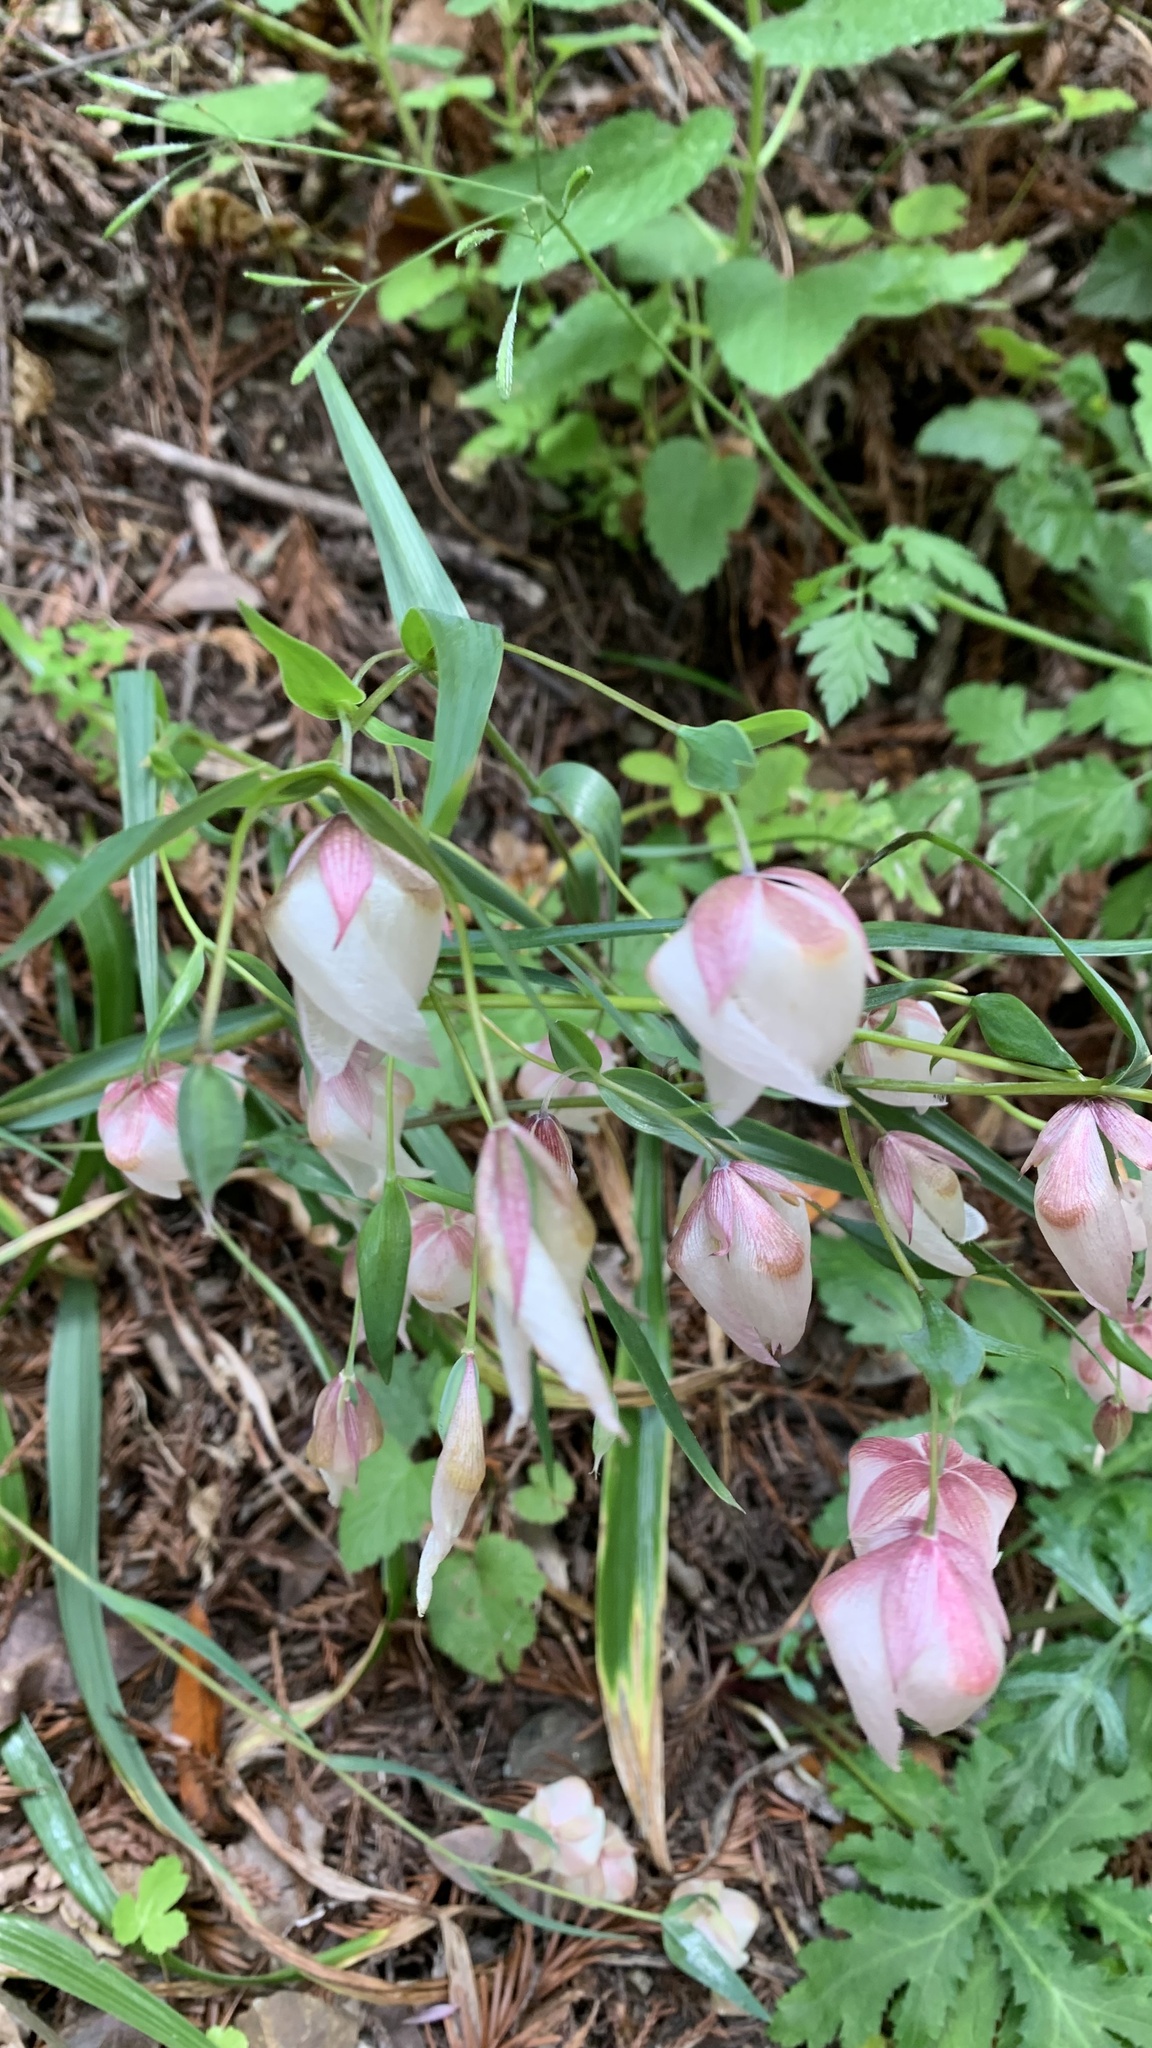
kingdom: Plantae
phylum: Tracheophyta
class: Liliopsida
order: Liliales
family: Liliaceae
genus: Calochortus
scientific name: Calochortus albus
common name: Fairy-lantern
